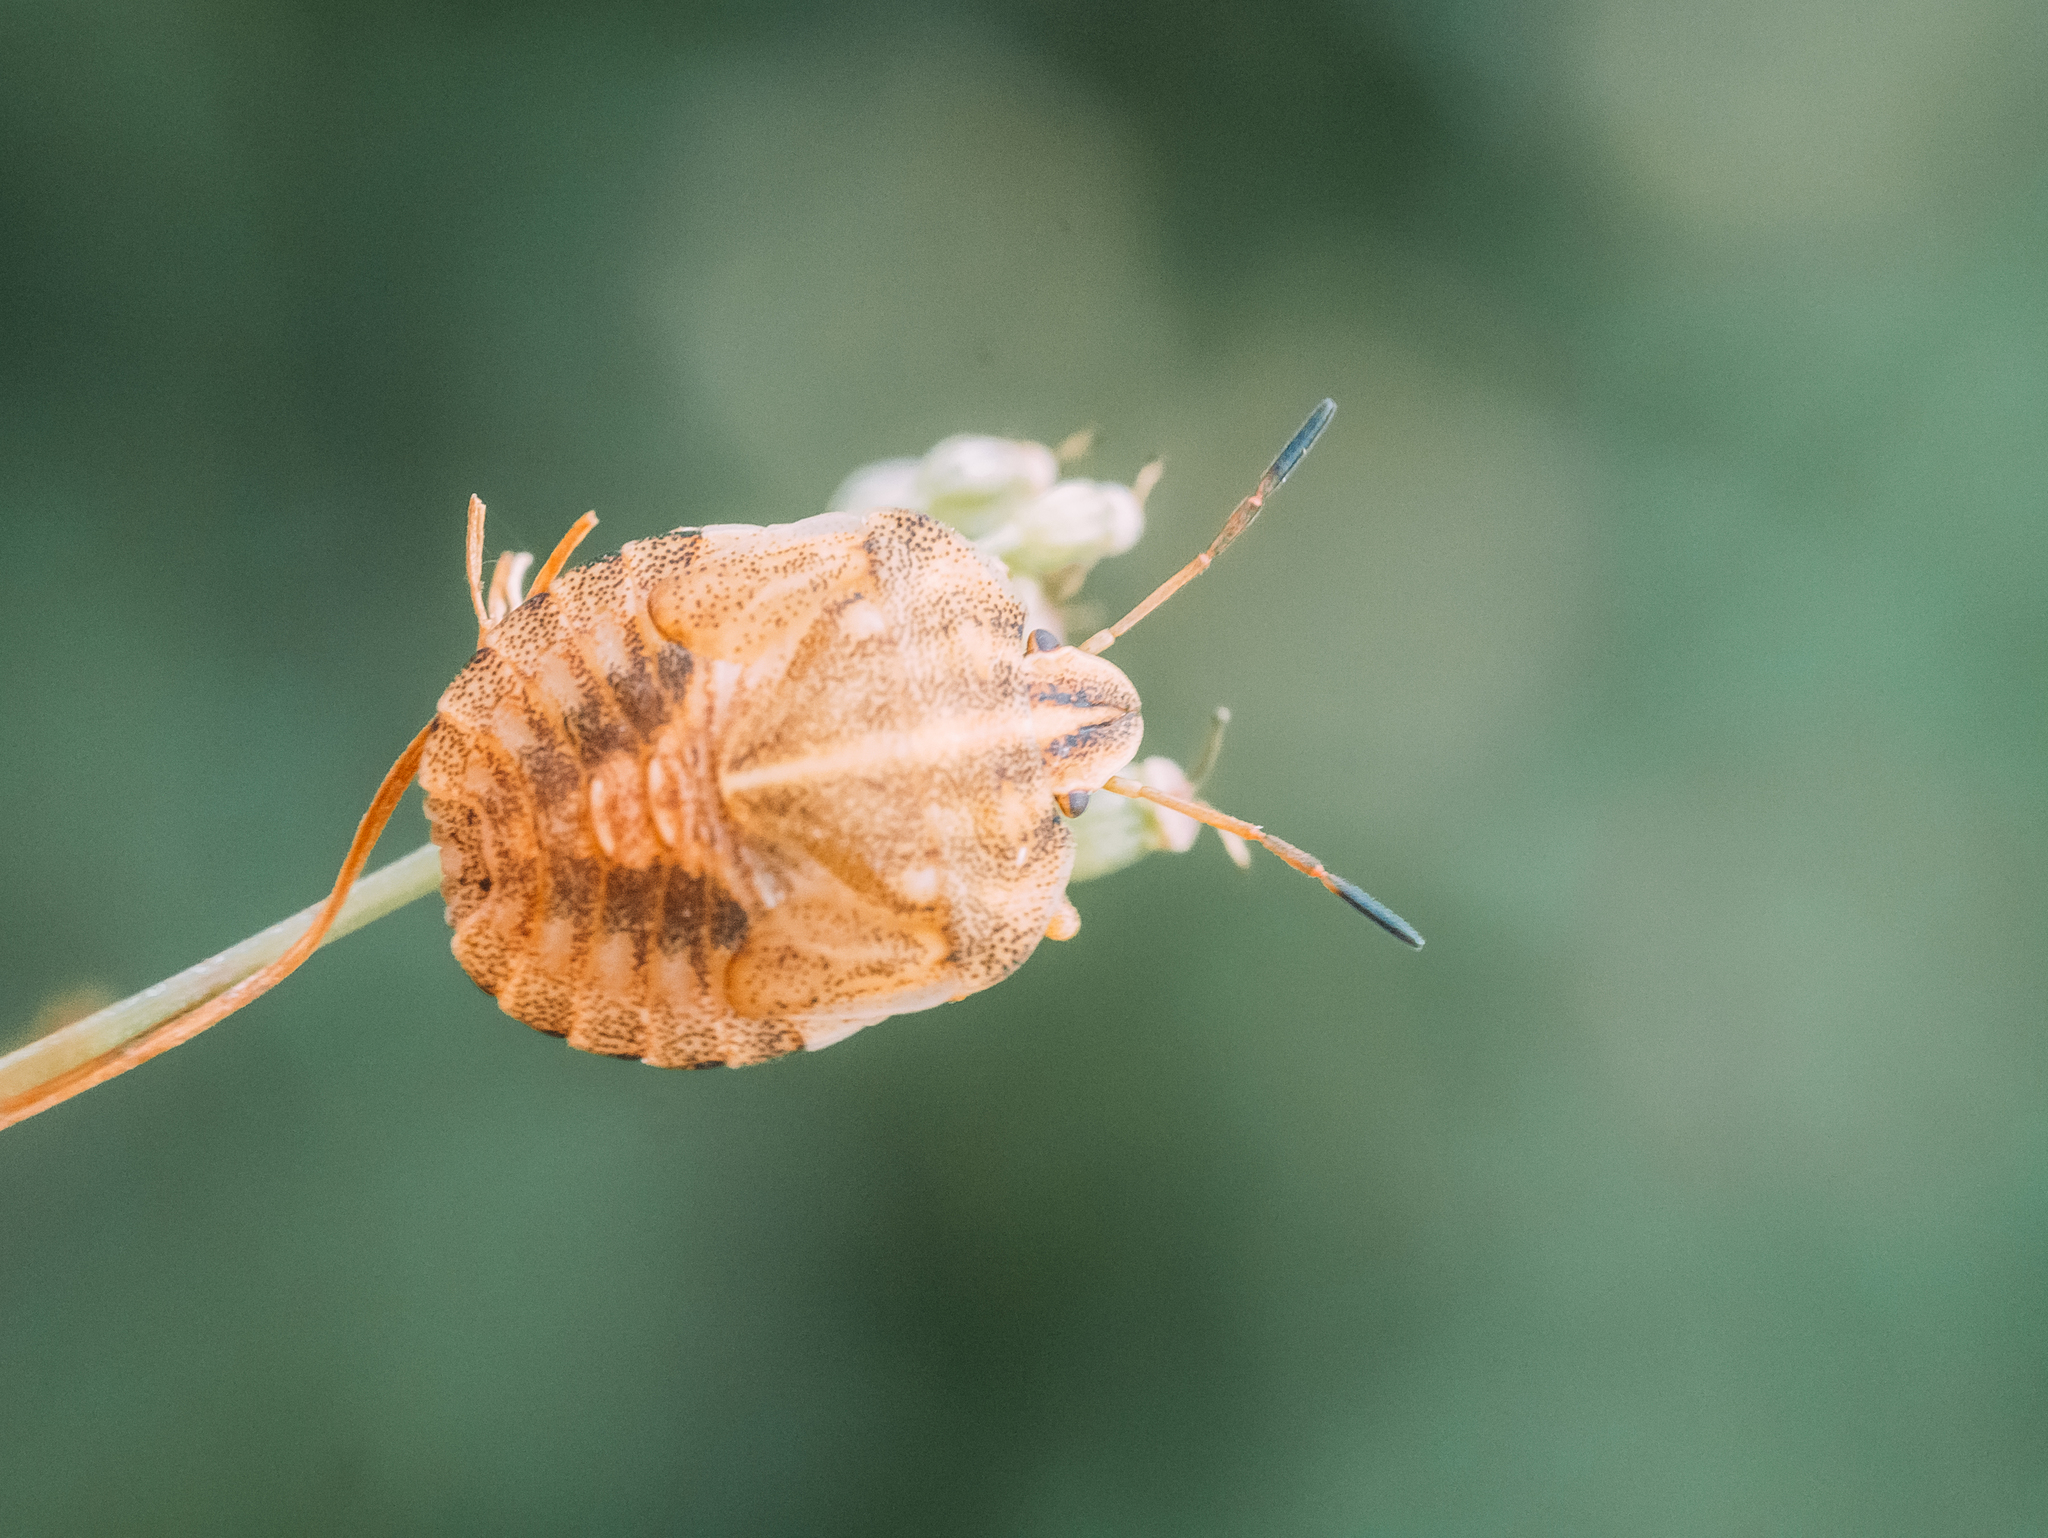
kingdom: Animalia
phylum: Arthropoda
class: Insecta
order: Hemiptera
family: Pentatomidae
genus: Graphosoma
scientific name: Graphosoma italicum
